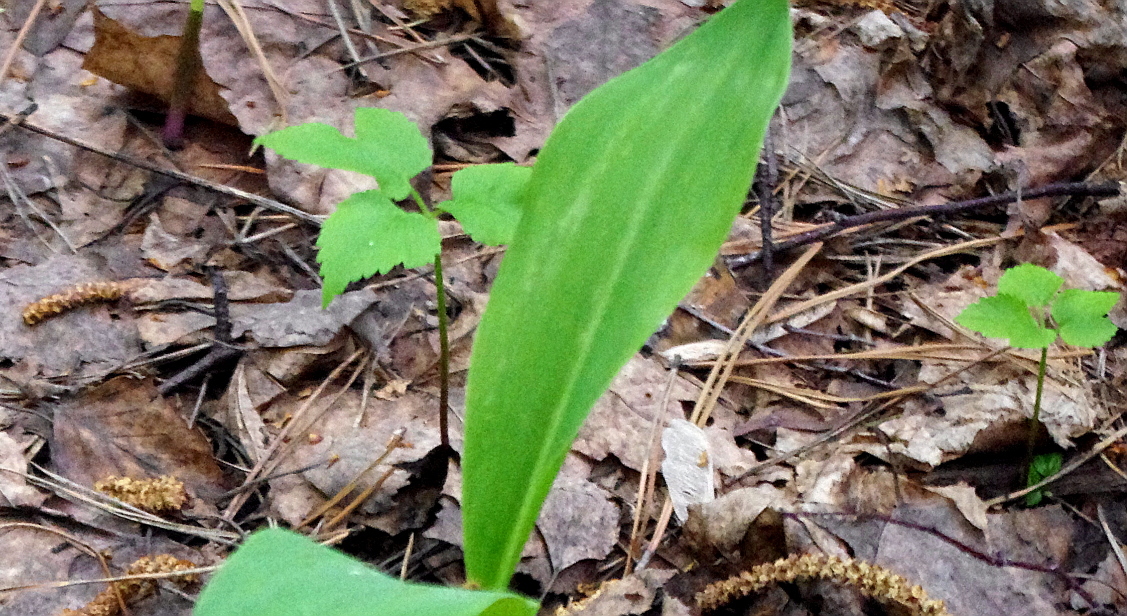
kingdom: Plantae
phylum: Tracheophyta
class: Magnoliopsida
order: Apiales
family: Apiaceae
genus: Aegopodium
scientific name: Aegopodium podagraria
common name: Ground-elder
